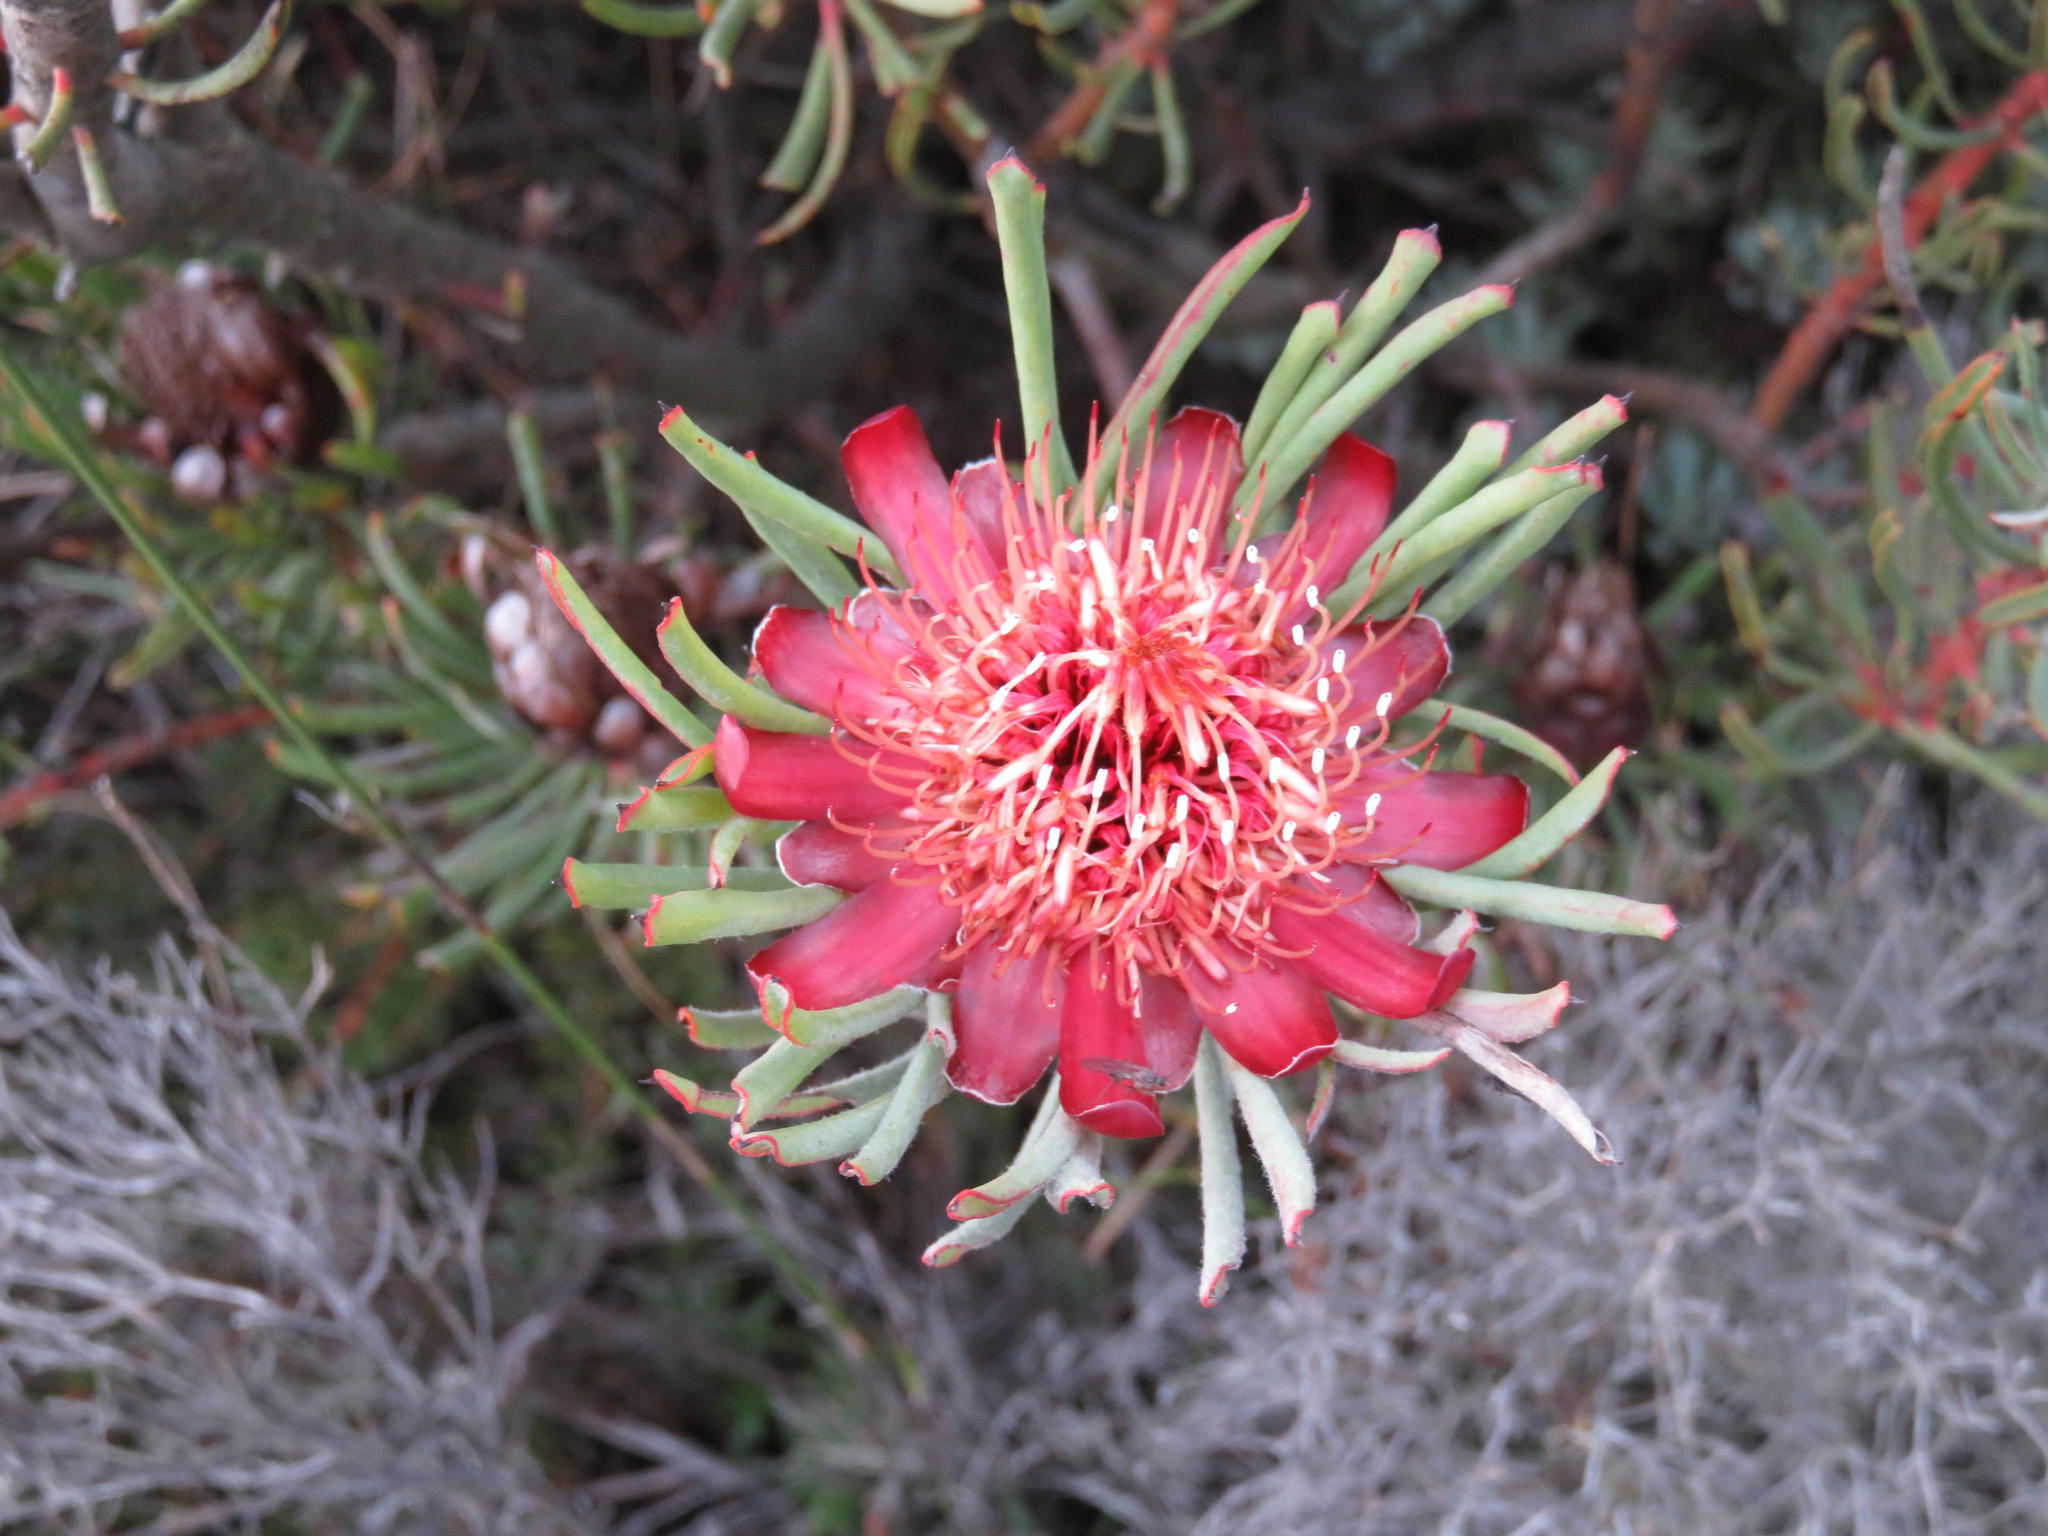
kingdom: Plantae
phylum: Tracheophyta
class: Magnoliopsida
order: Proteales
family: Proteaceae
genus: Protea
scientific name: Protea canaliculata
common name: Groove-leaf sugarbush
